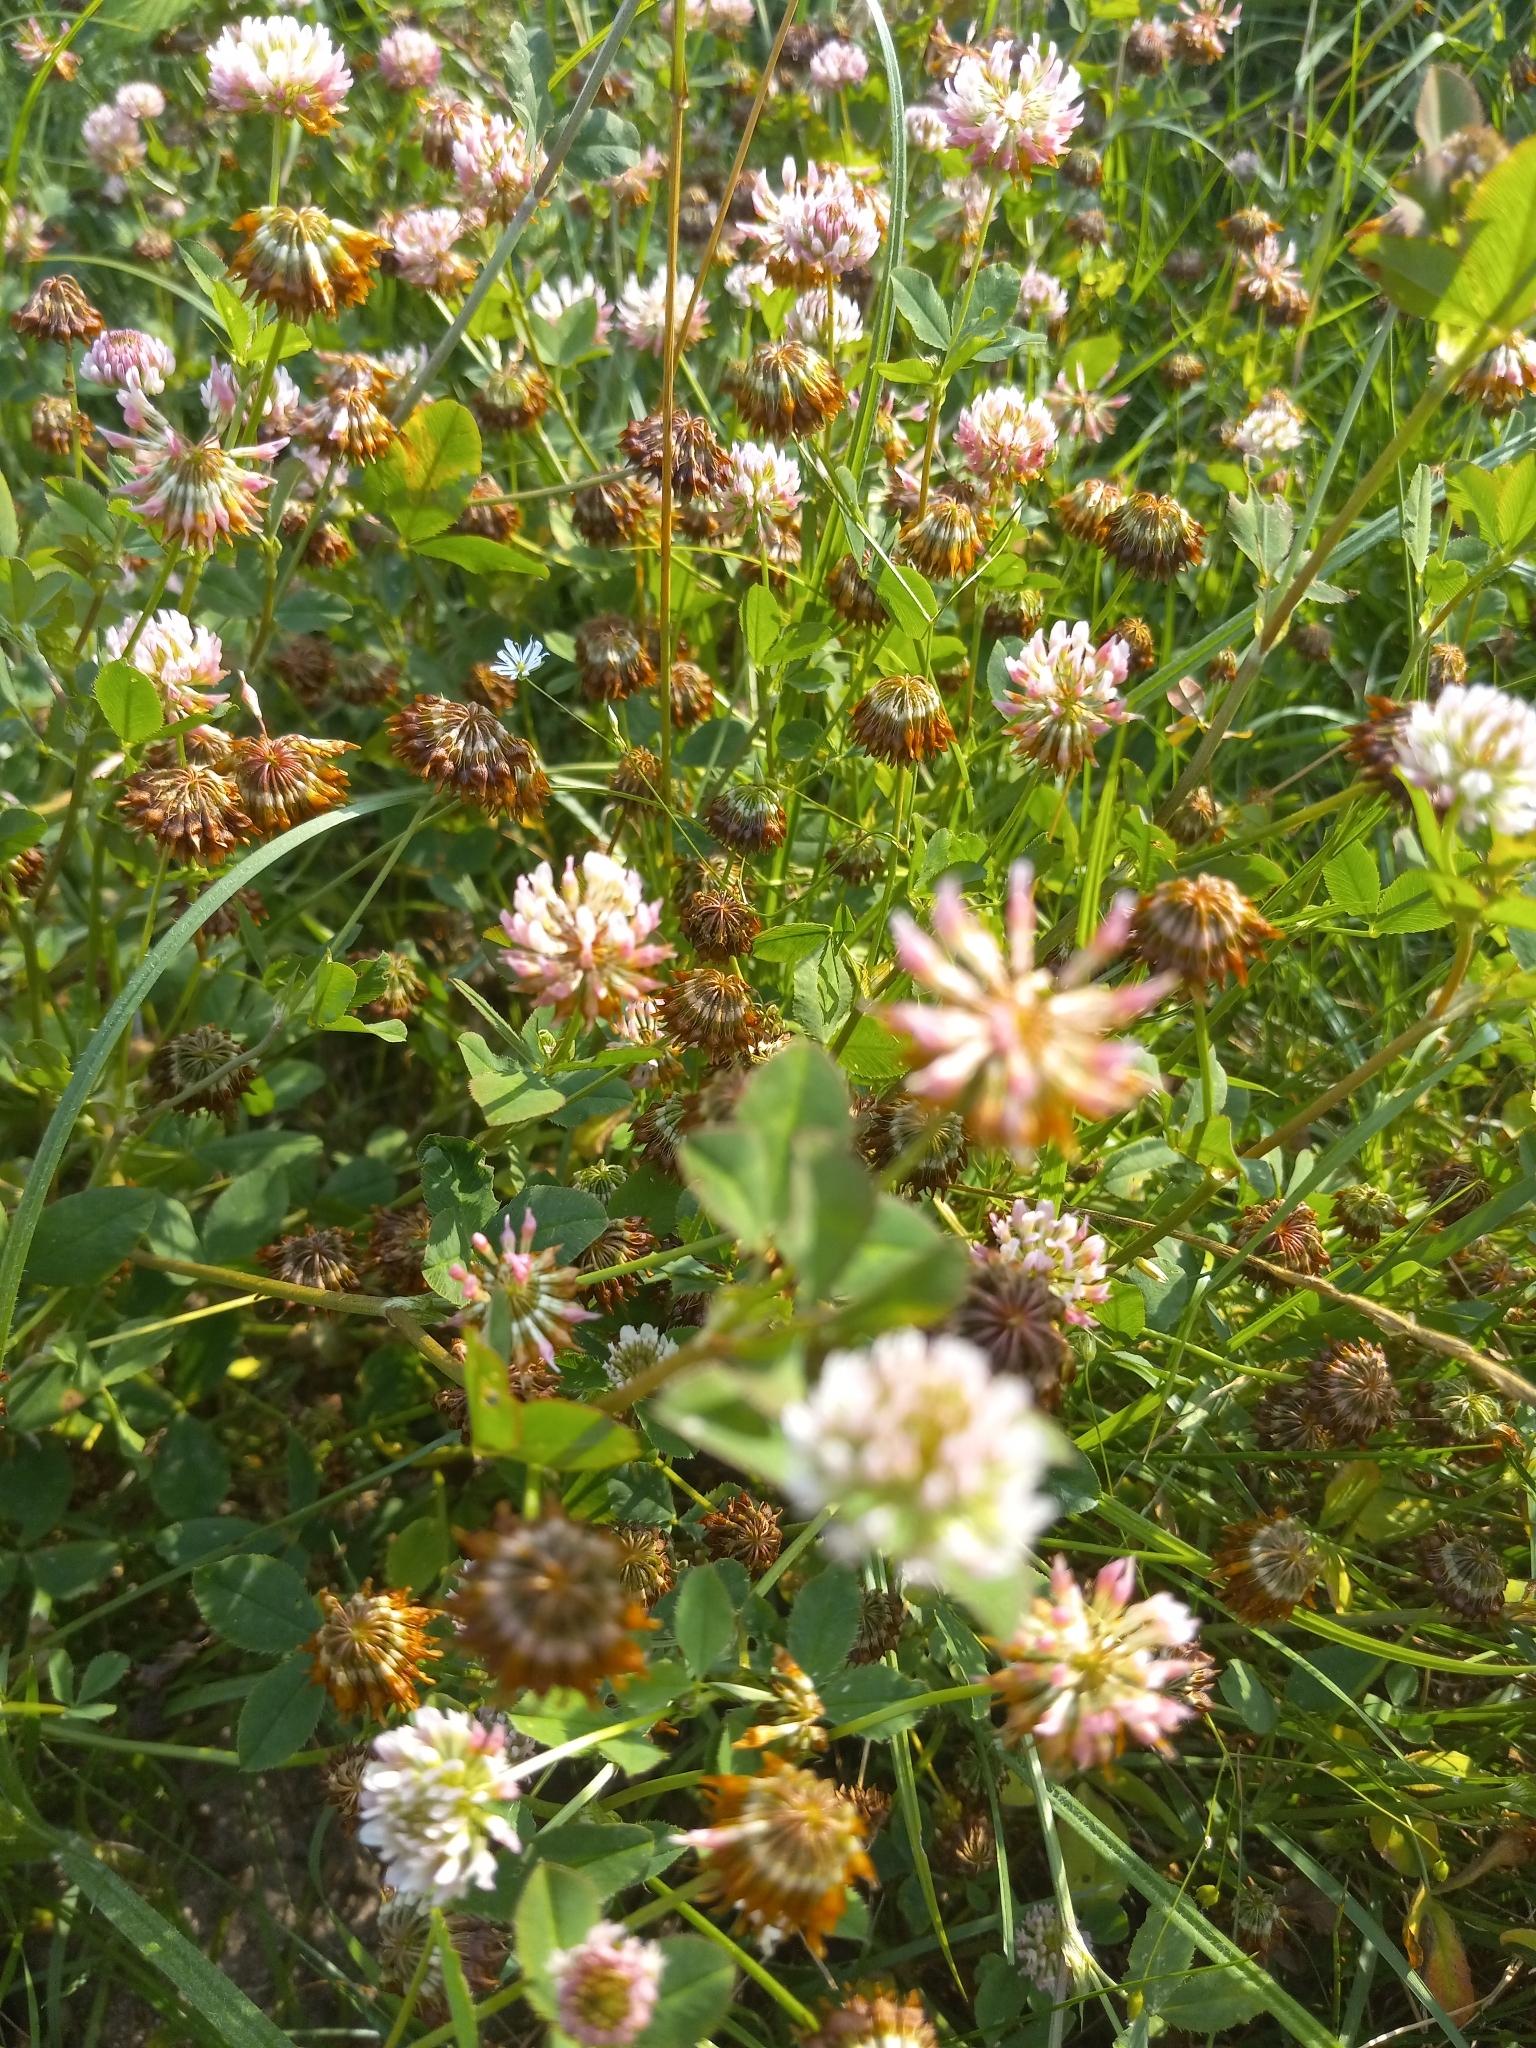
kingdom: Plantae
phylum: Tracheophyta
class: Magnoliopsida
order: Fabales
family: Fabaceae
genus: Trifolium
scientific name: Trifolium hybridum
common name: Alsike clover
